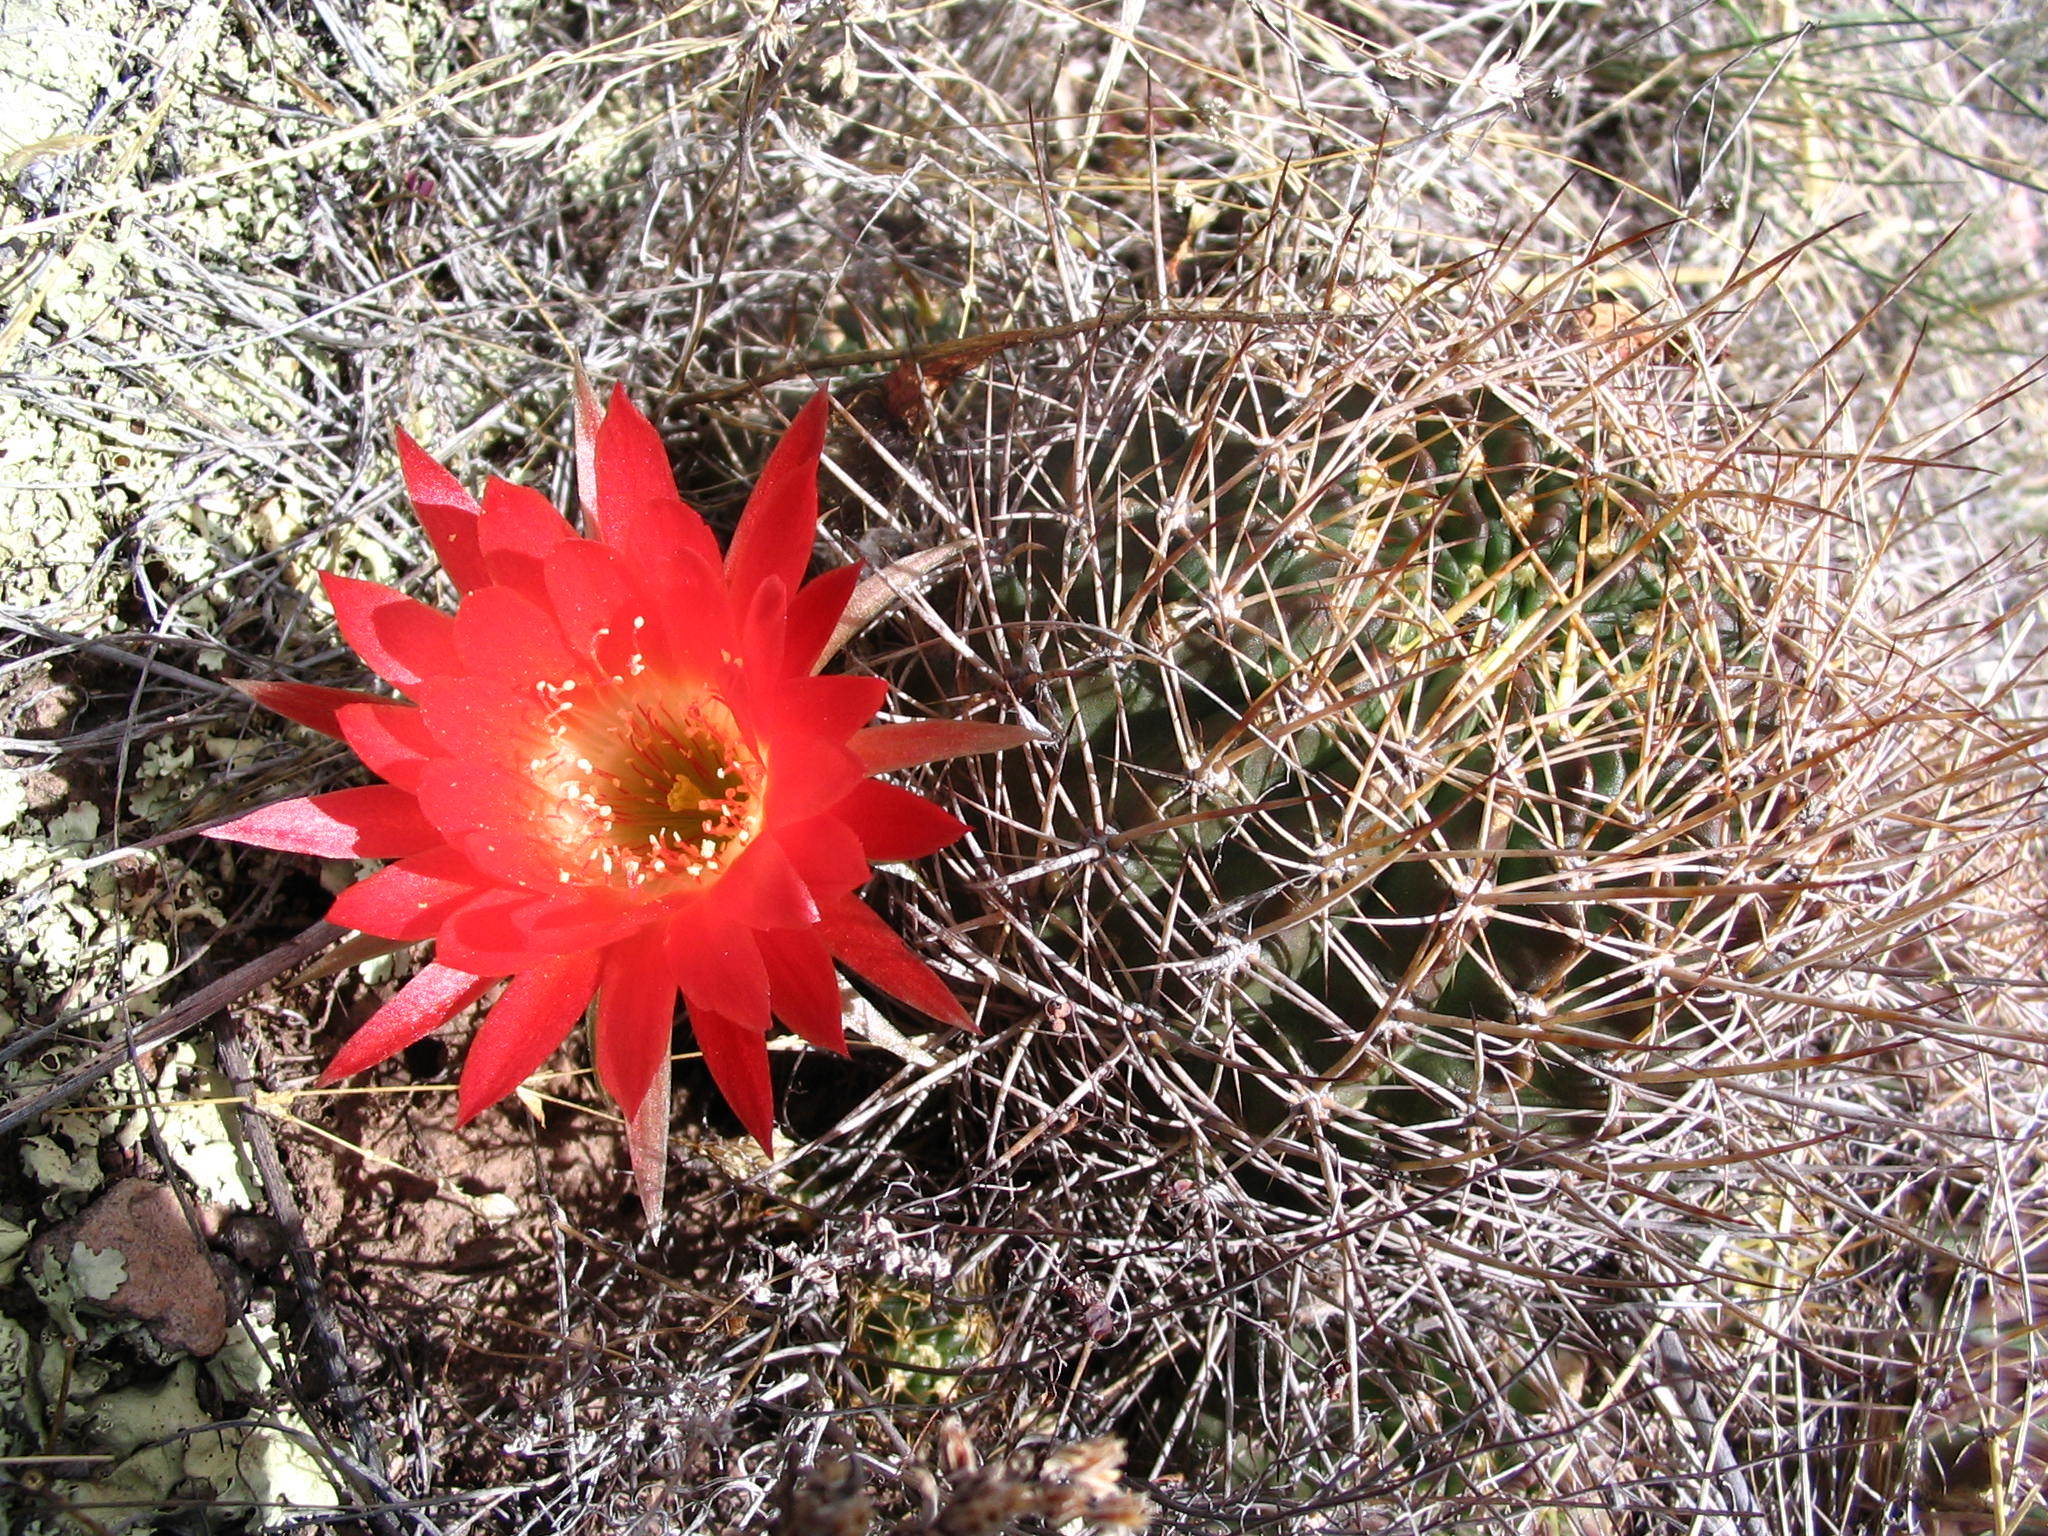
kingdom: Plantae
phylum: Tracheophyta
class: Magnoliopsida
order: Caryophyllales
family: Cactaceae
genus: Lobivia
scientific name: Lobivia hertrichiana
